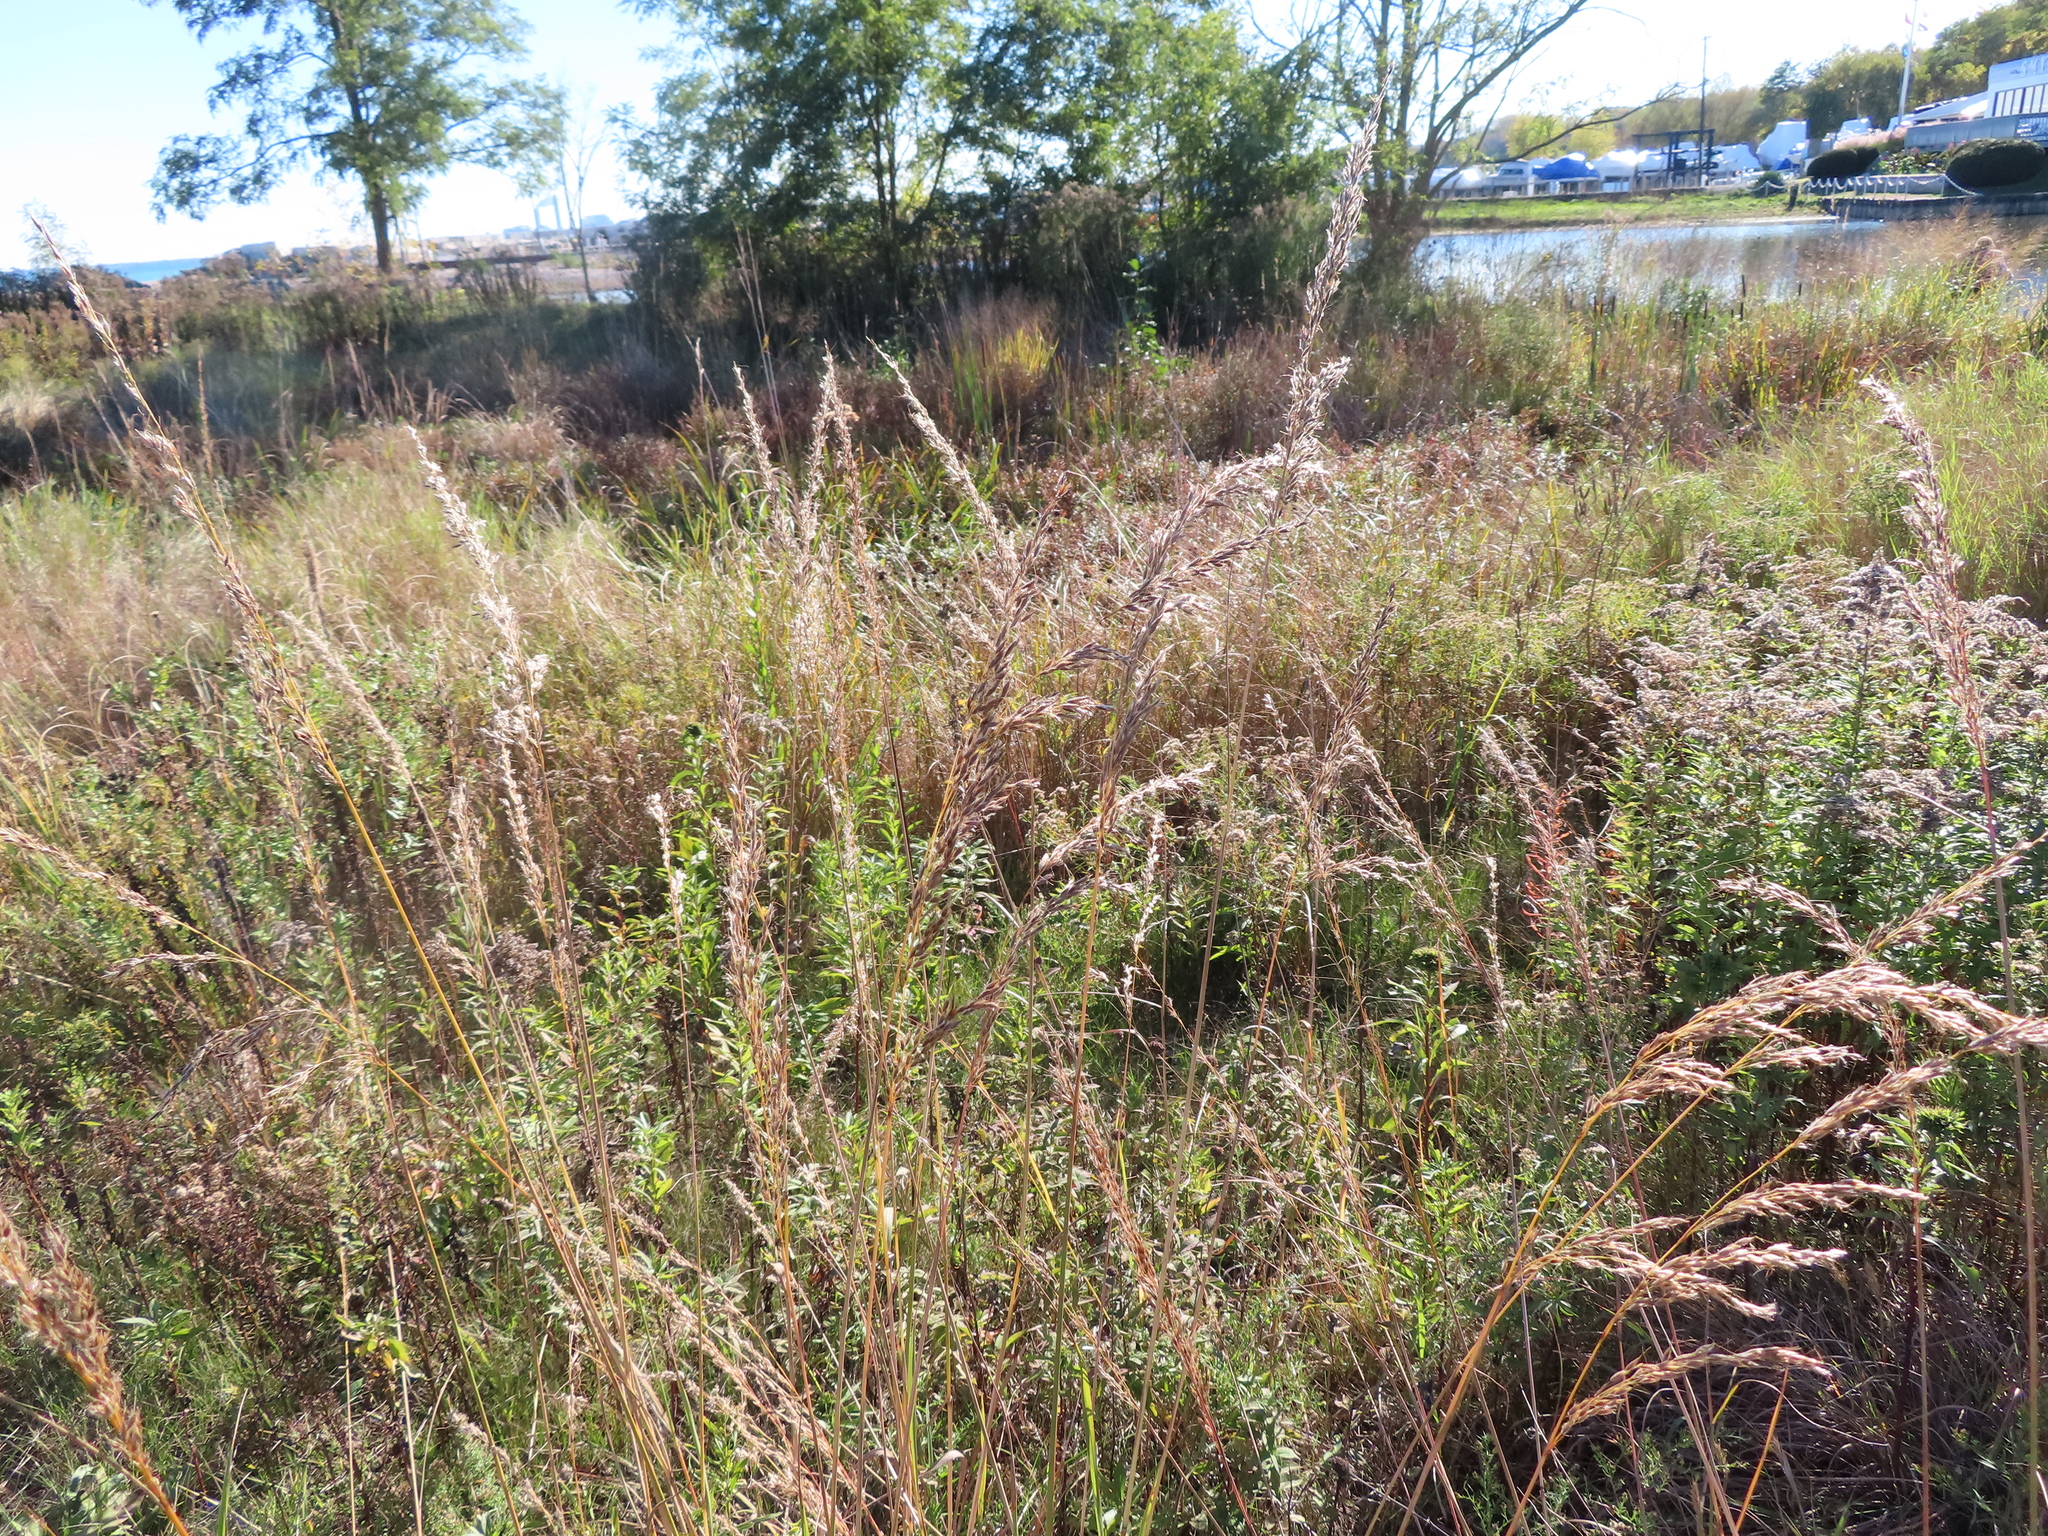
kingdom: Plantae
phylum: Tracheophyta
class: Liliopsida
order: Poales
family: Poaceae
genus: Sorghastrum
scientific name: Sorghastrum nutans
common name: Indian grass
